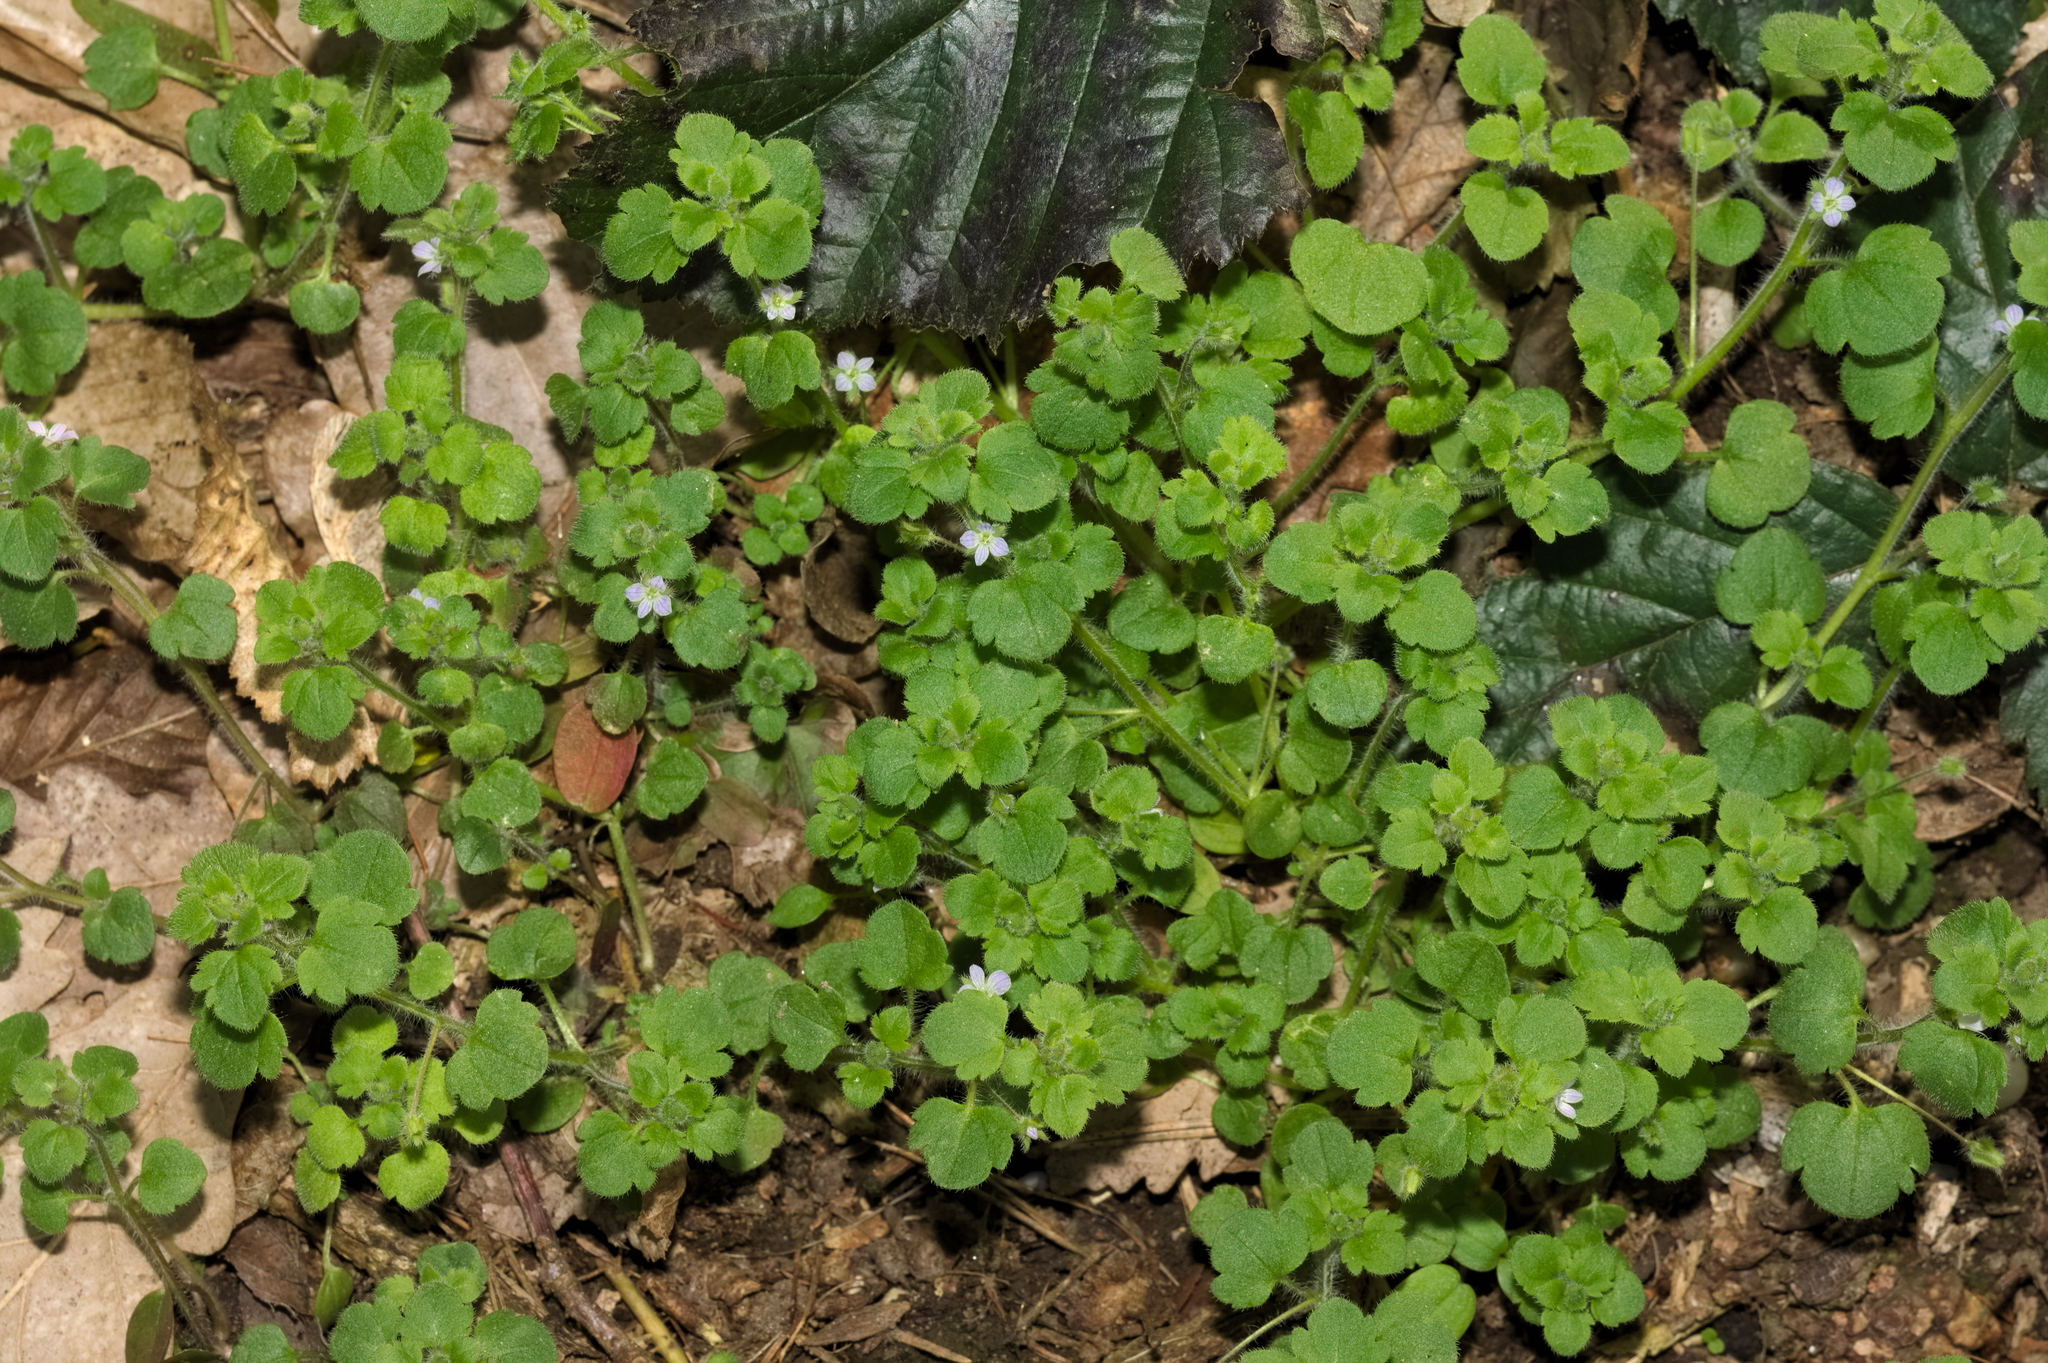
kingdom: Plantae
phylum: Tracheophyta
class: Magnoliopsida
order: Lamiales
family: Plantaginaceae
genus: Veronica
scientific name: Veronica sublobata
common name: False ivy-leaved speedwell
